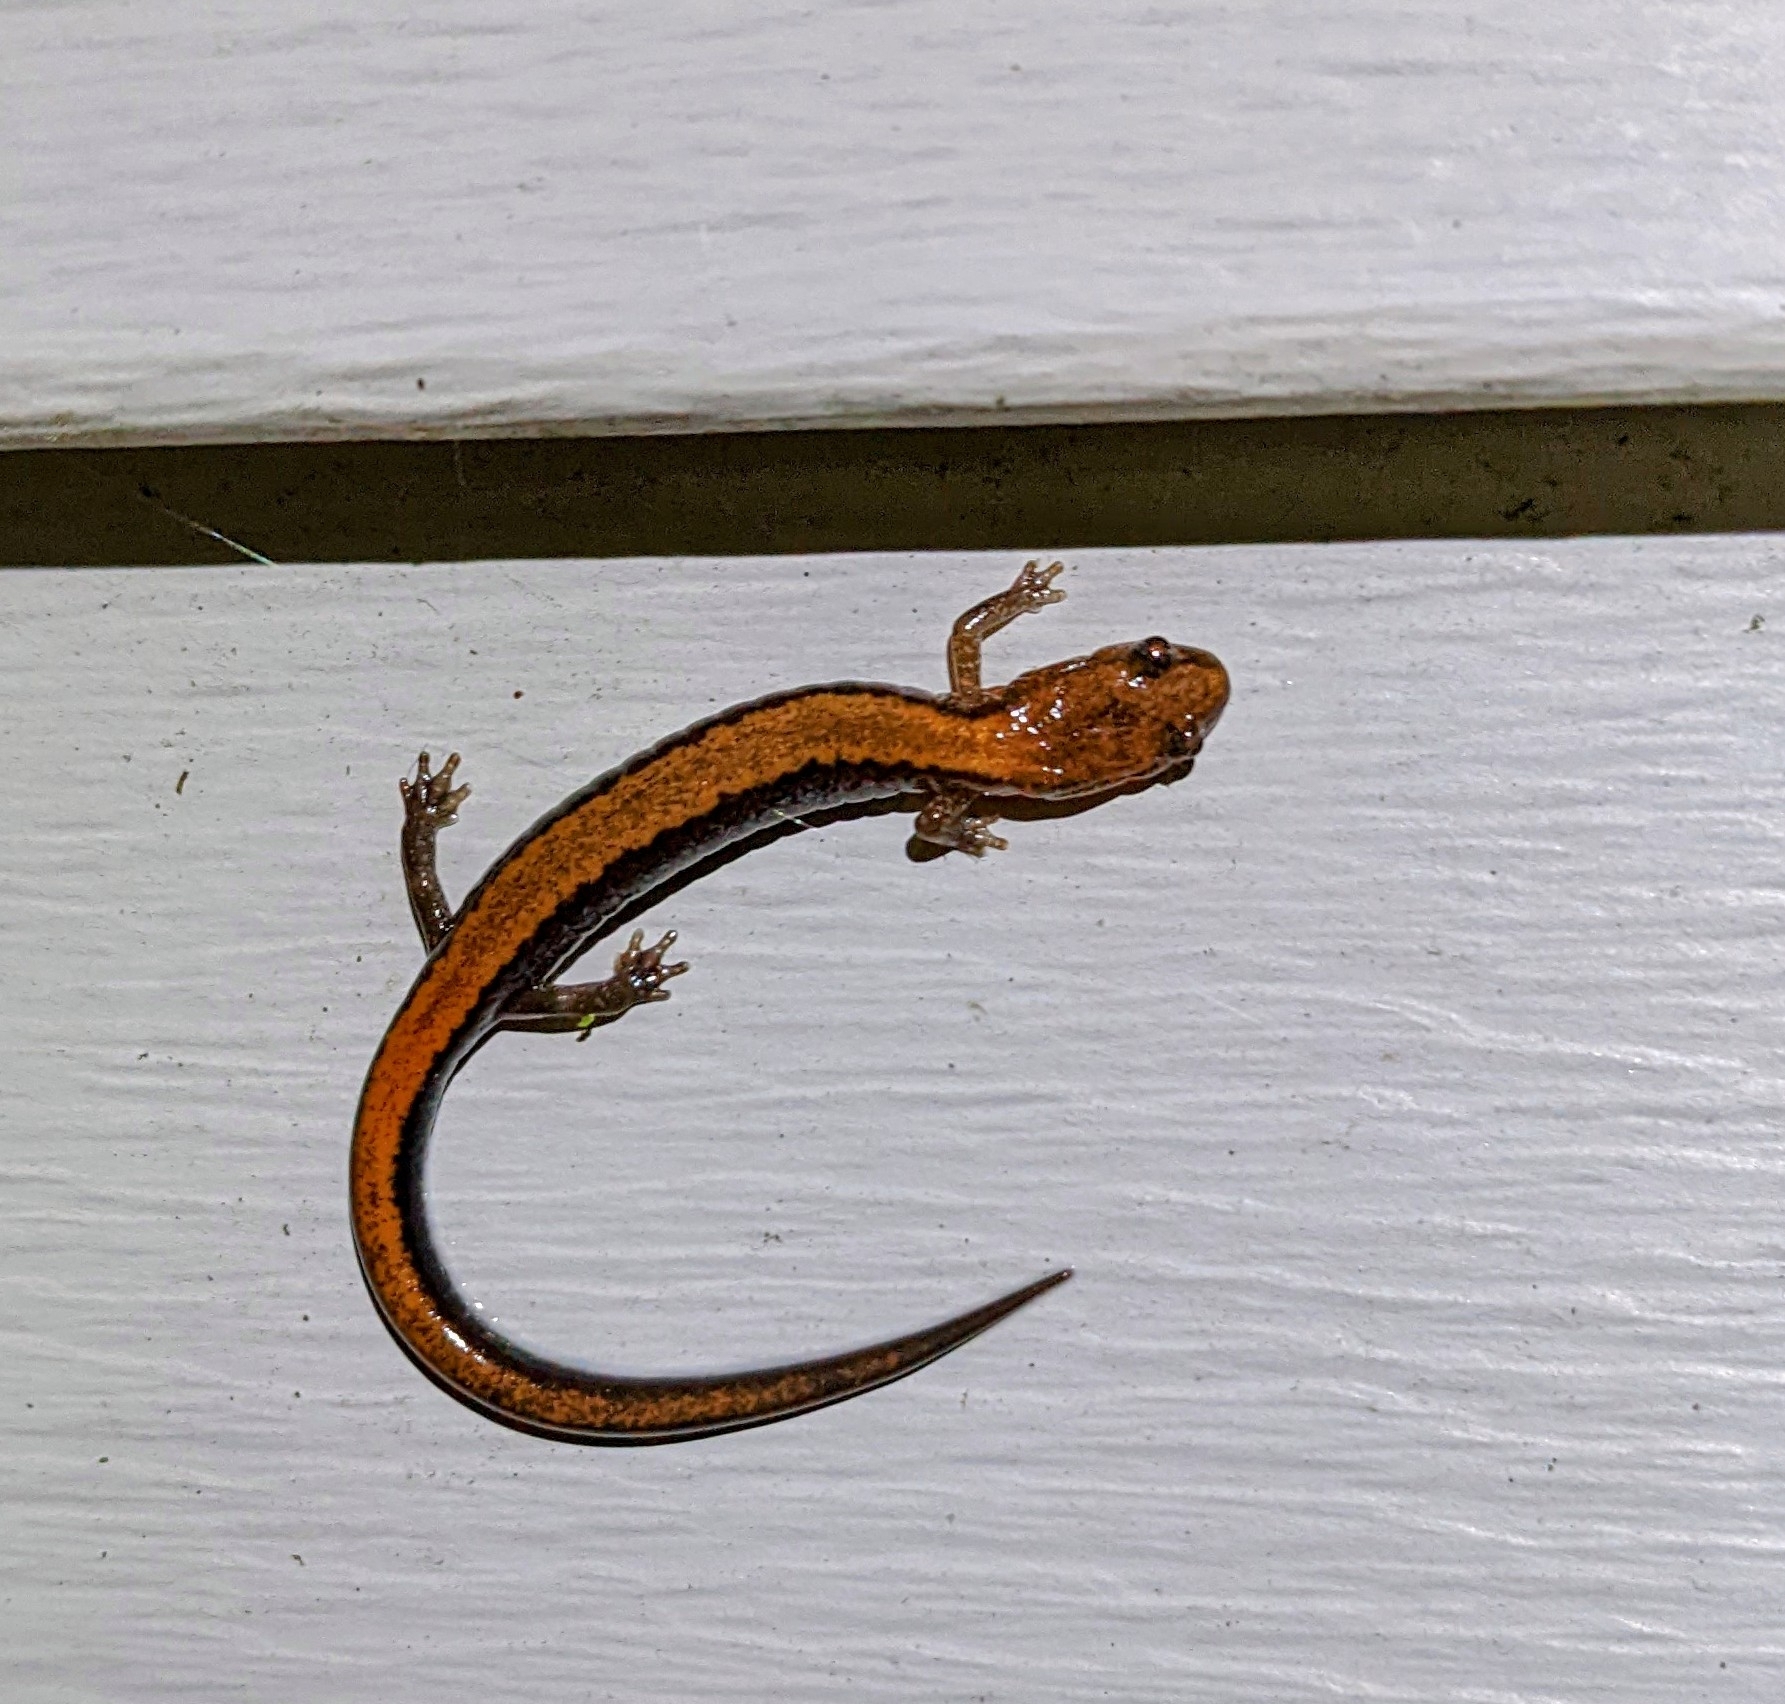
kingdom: Animalia
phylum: Chordata
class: Amphibia
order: Caudata
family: Plethodontidae
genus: Plethodon
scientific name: Plethodon cinereus
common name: Redback salamander
